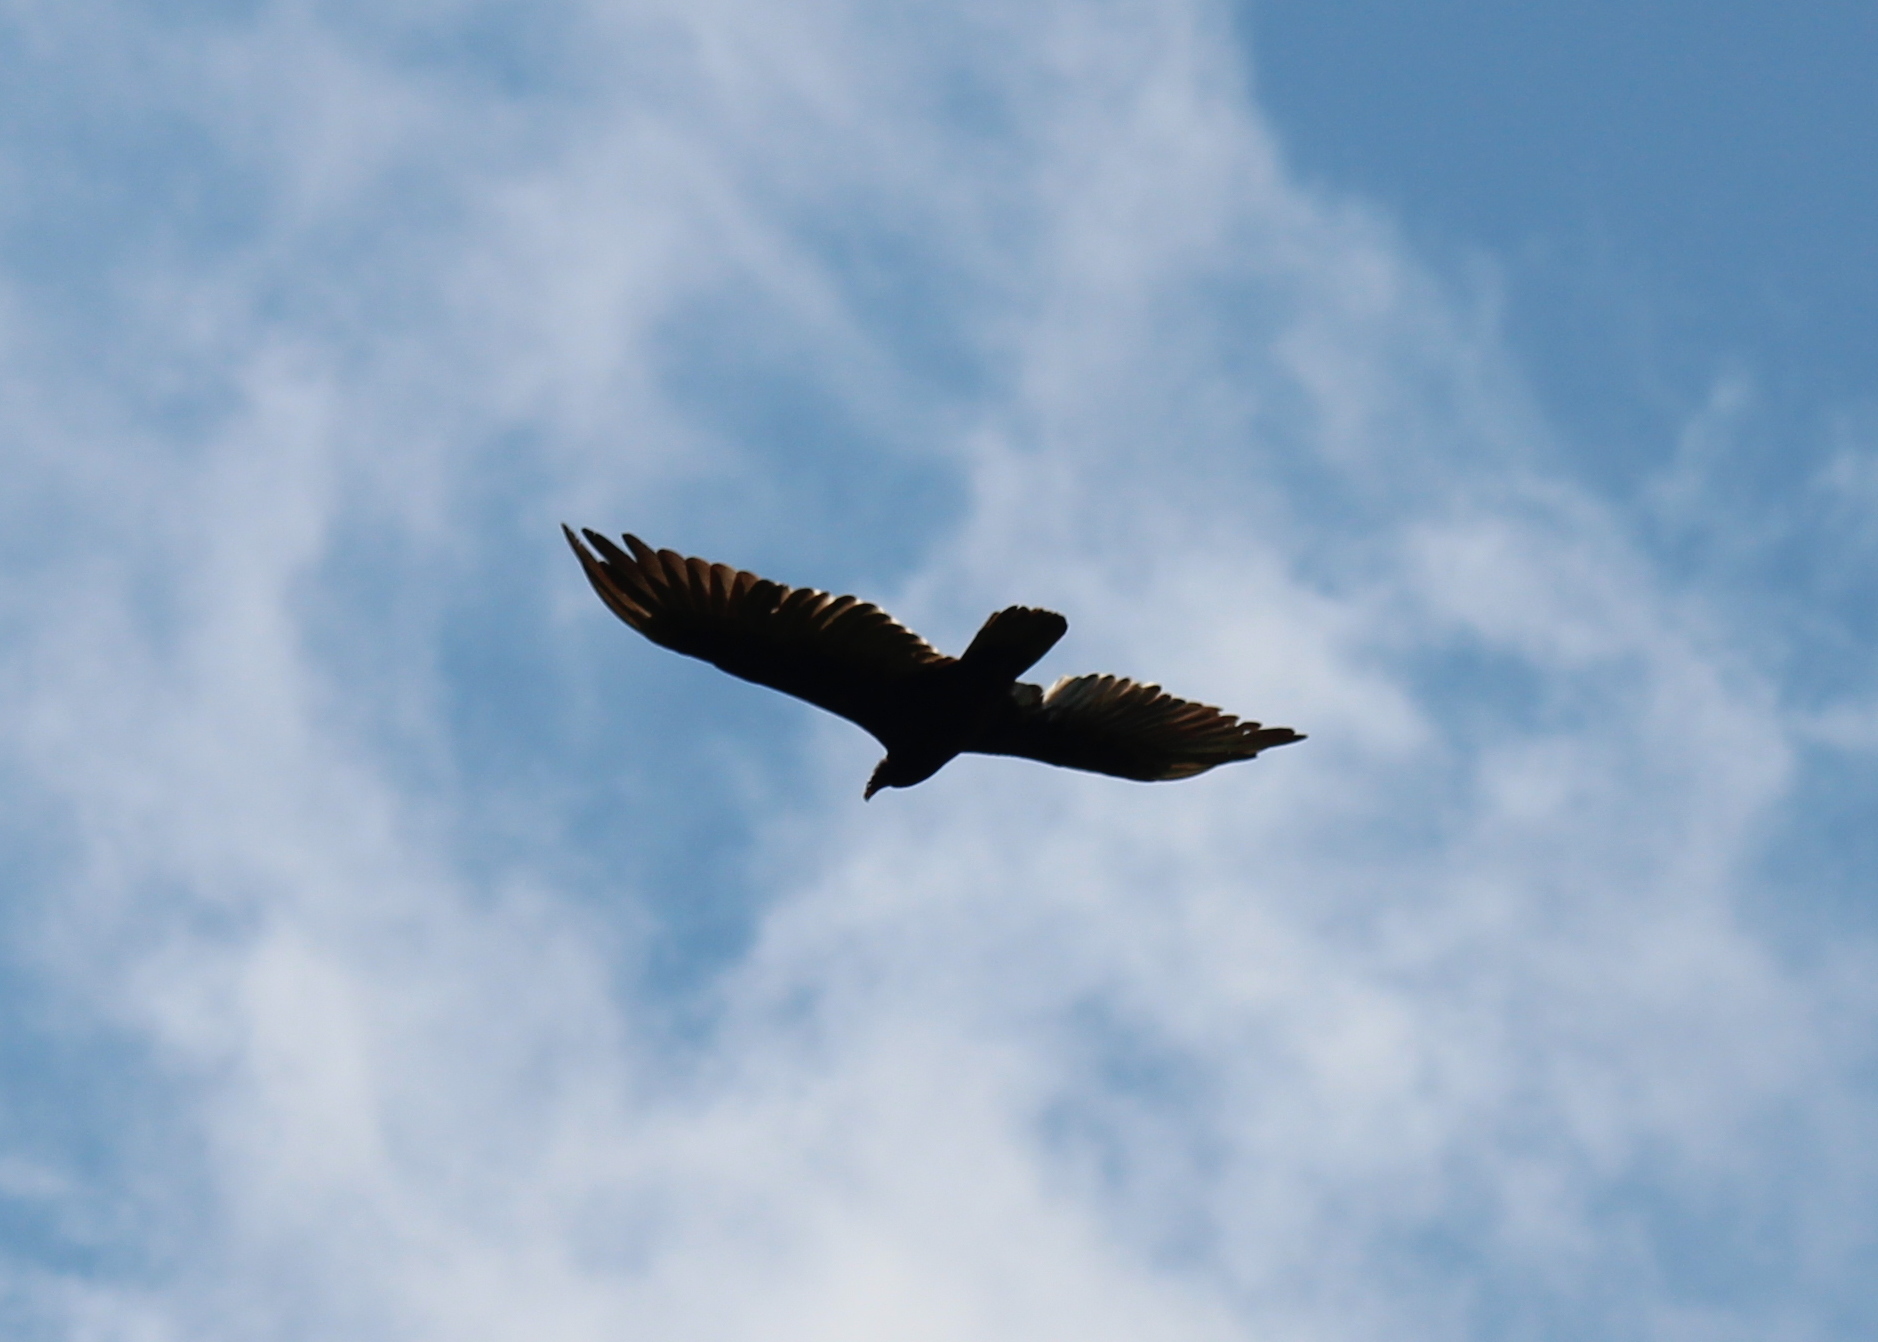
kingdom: Animalia
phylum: Chordata
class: Aves
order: Accipitriformes
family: Cathartidae
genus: Cathartes
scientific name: Cathartes aura
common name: Turkey vulture
